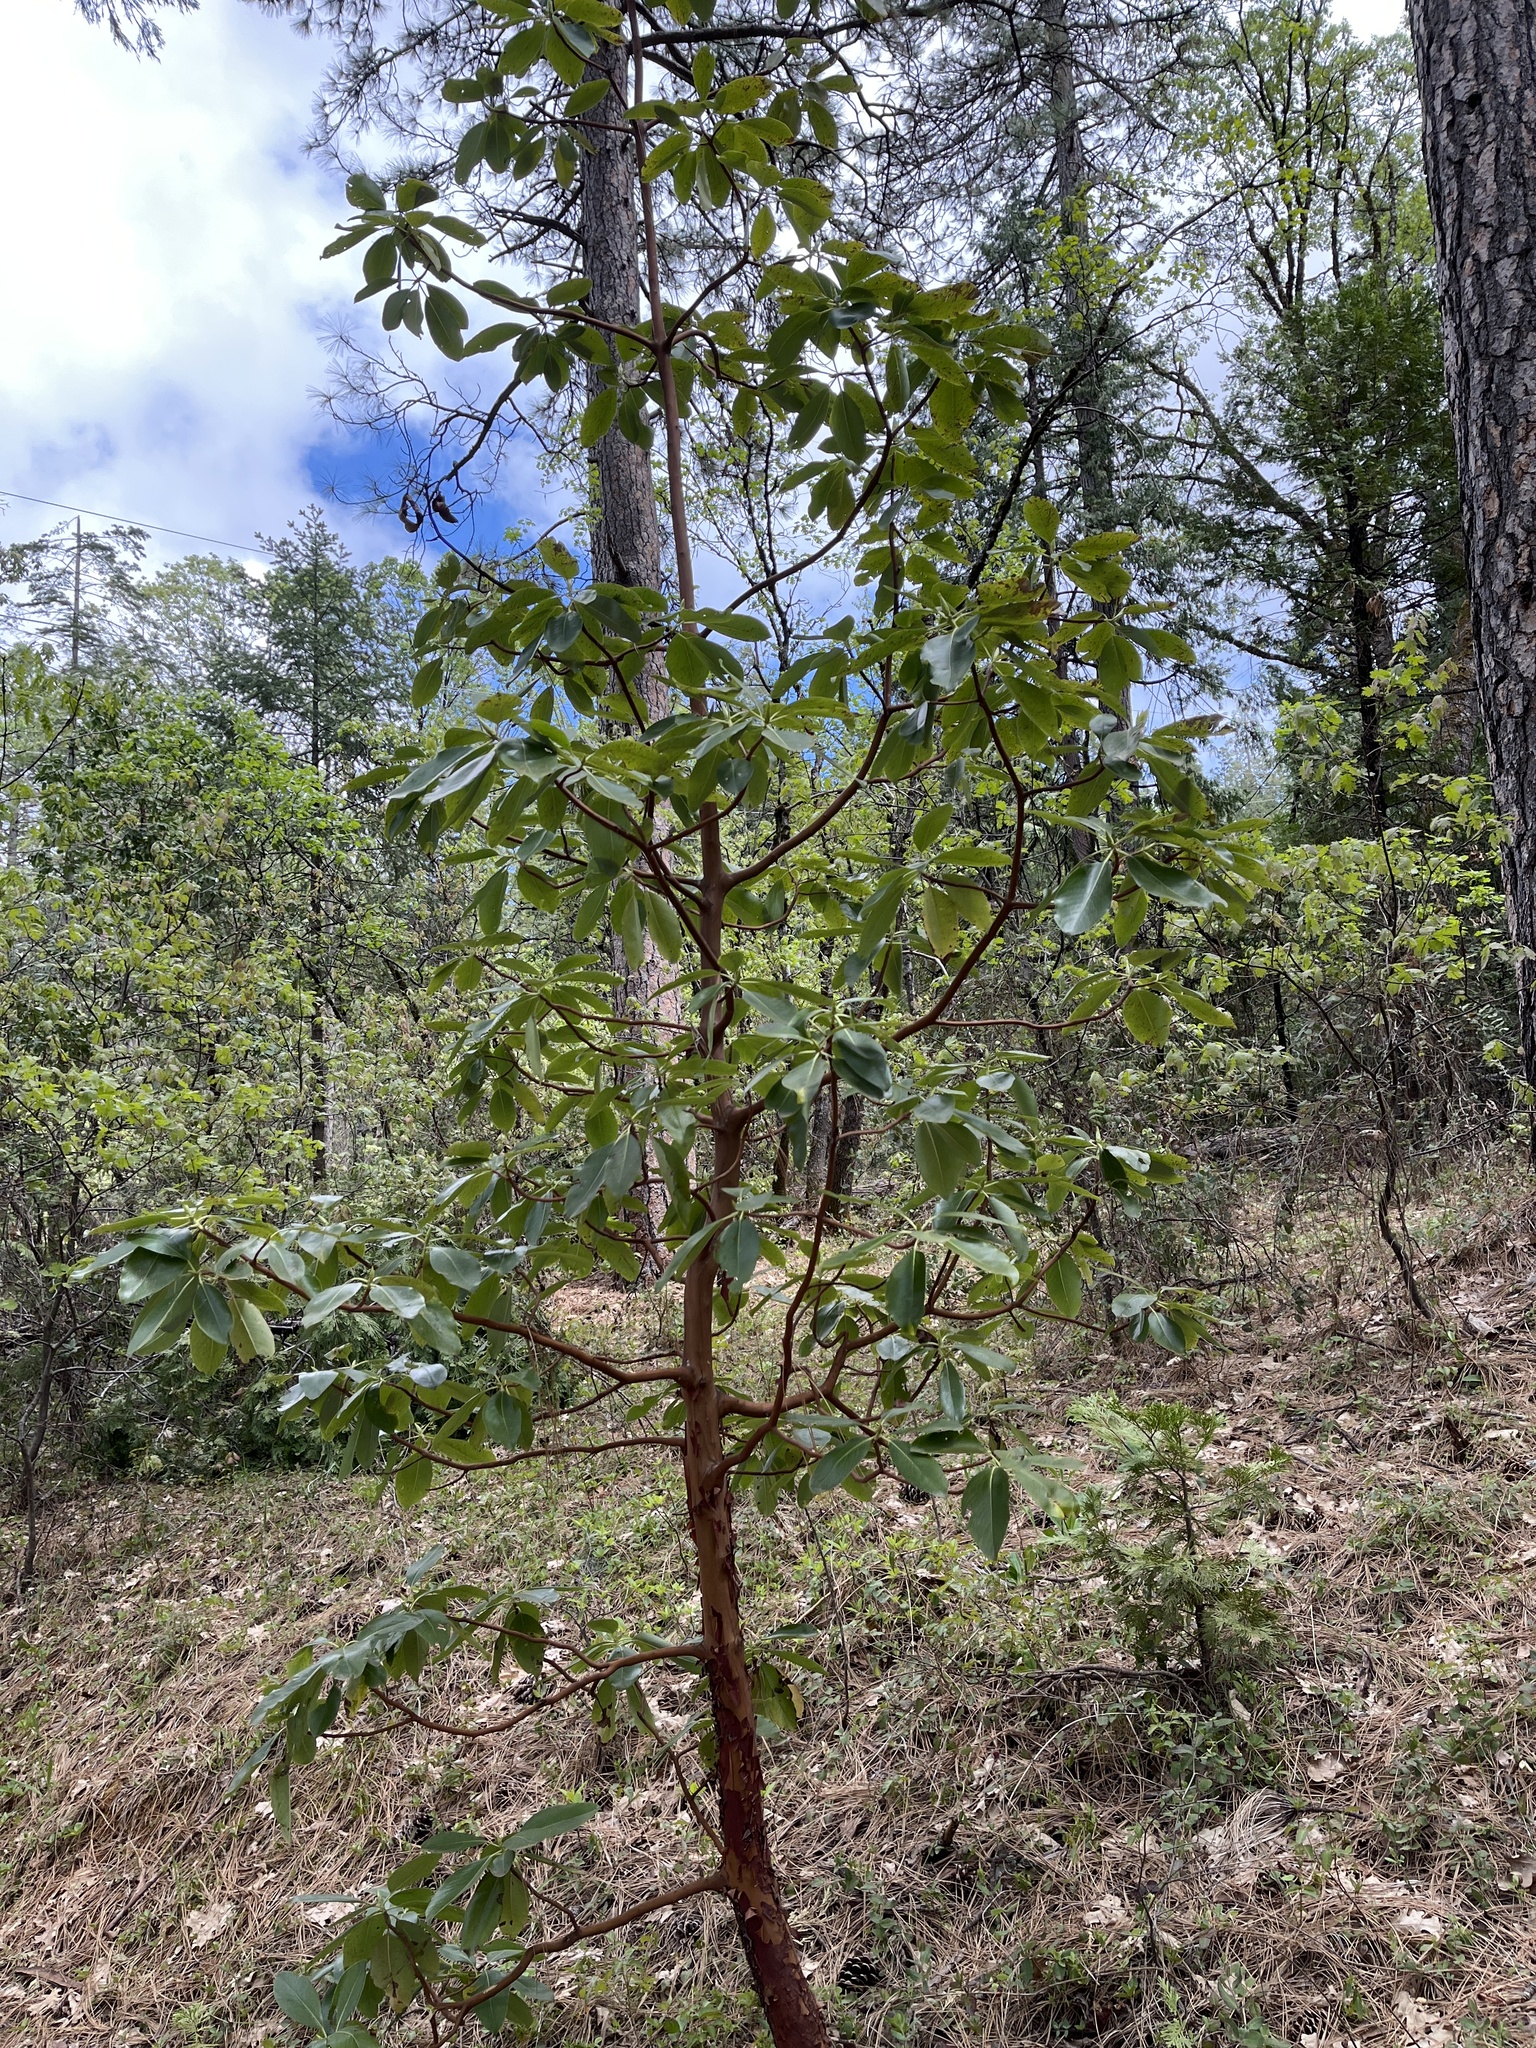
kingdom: Plantae
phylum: Tracheophyta
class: Magnoliopsida
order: Ericales
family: Ericaceae
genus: Arbutus
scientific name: Arbutus menziesii
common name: Pacific madrone
